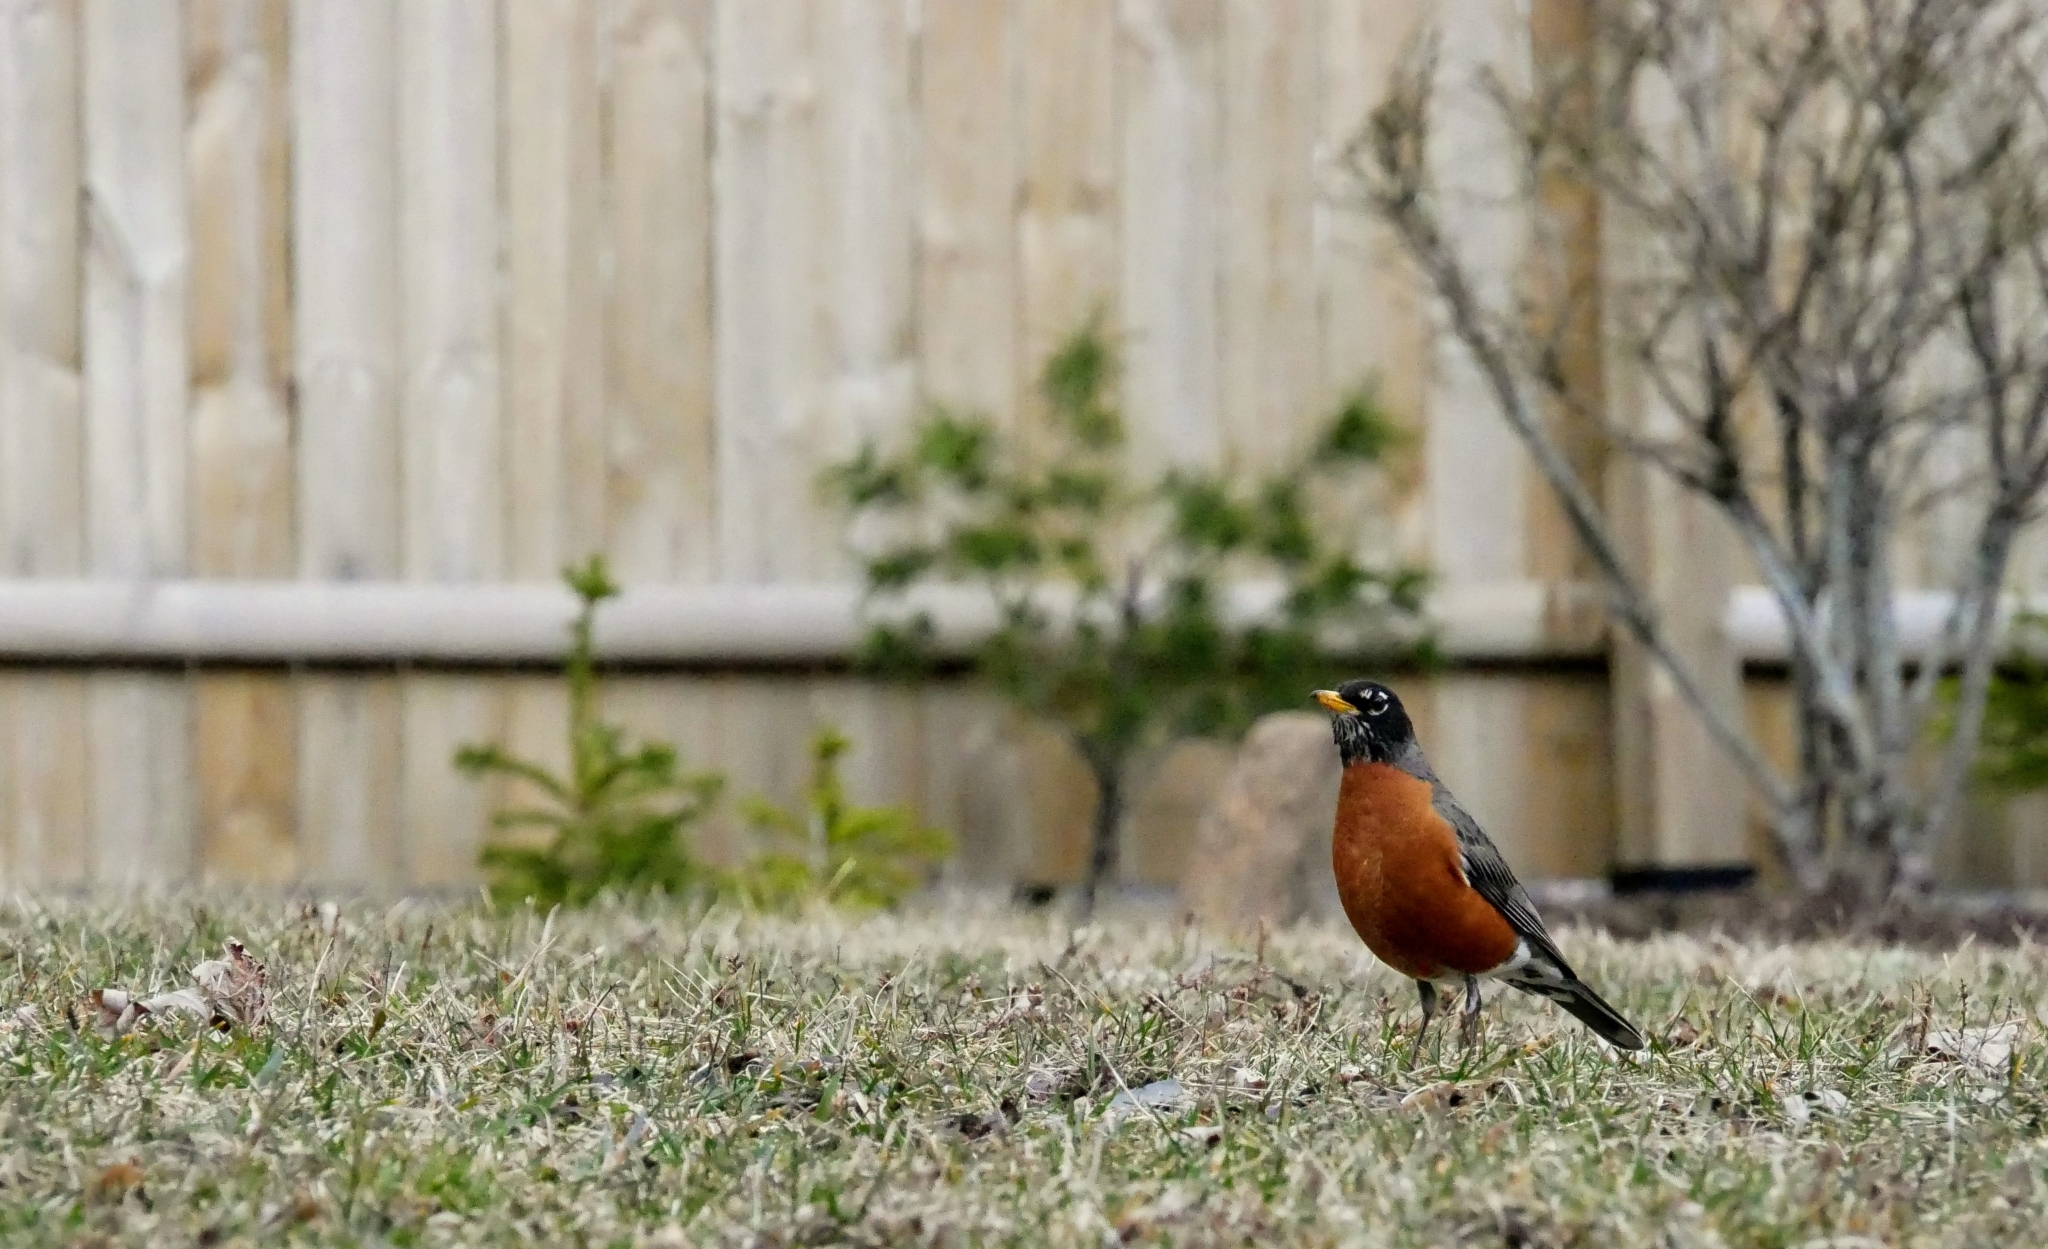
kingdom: Animalia
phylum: Chordata
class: Aves
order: Passeriformes
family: Turdidae
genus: Turdus
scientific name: Turdus migratorius
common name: American robin
